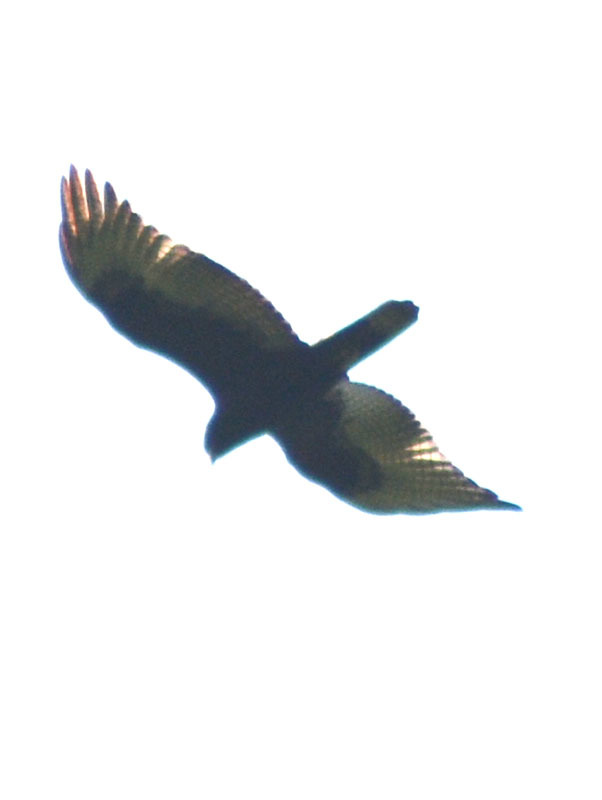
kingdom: Animalia
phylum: Chordata
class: Aves
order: Accipitriformes
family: Accipitridae
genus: Buteo
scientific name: Buteo albonotatus
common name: Zone-tailed hawk
